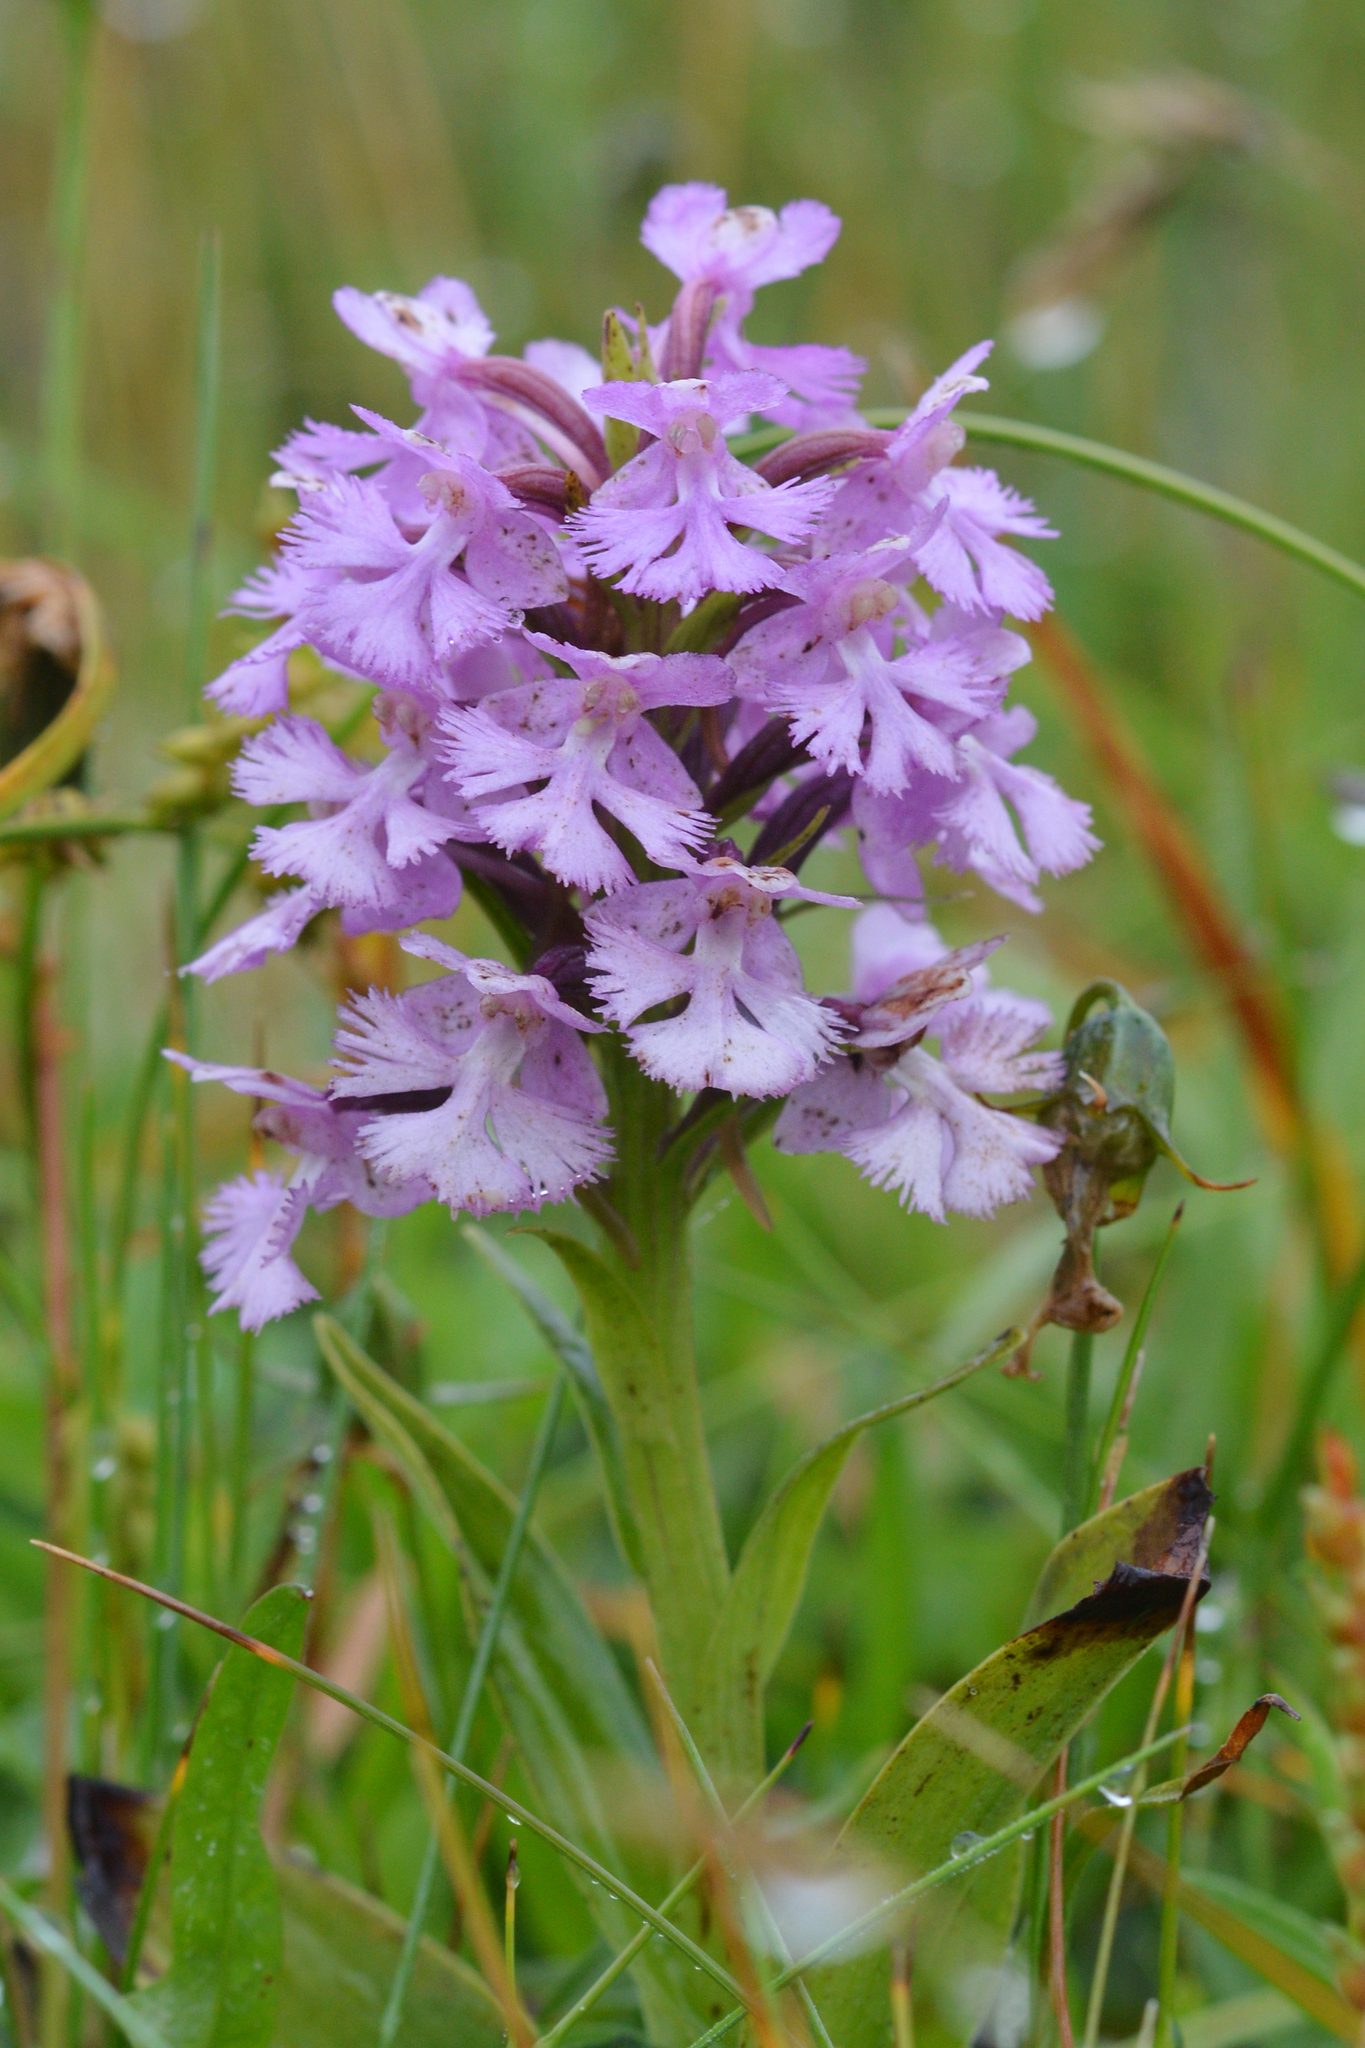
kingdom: Plantae
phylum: Tracheophyta
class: Liliopsida
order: Asparagales
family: Orchidaceae
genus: Platanthera
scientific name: Platanthera psycodes
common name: Lesser purple fringed orchid
